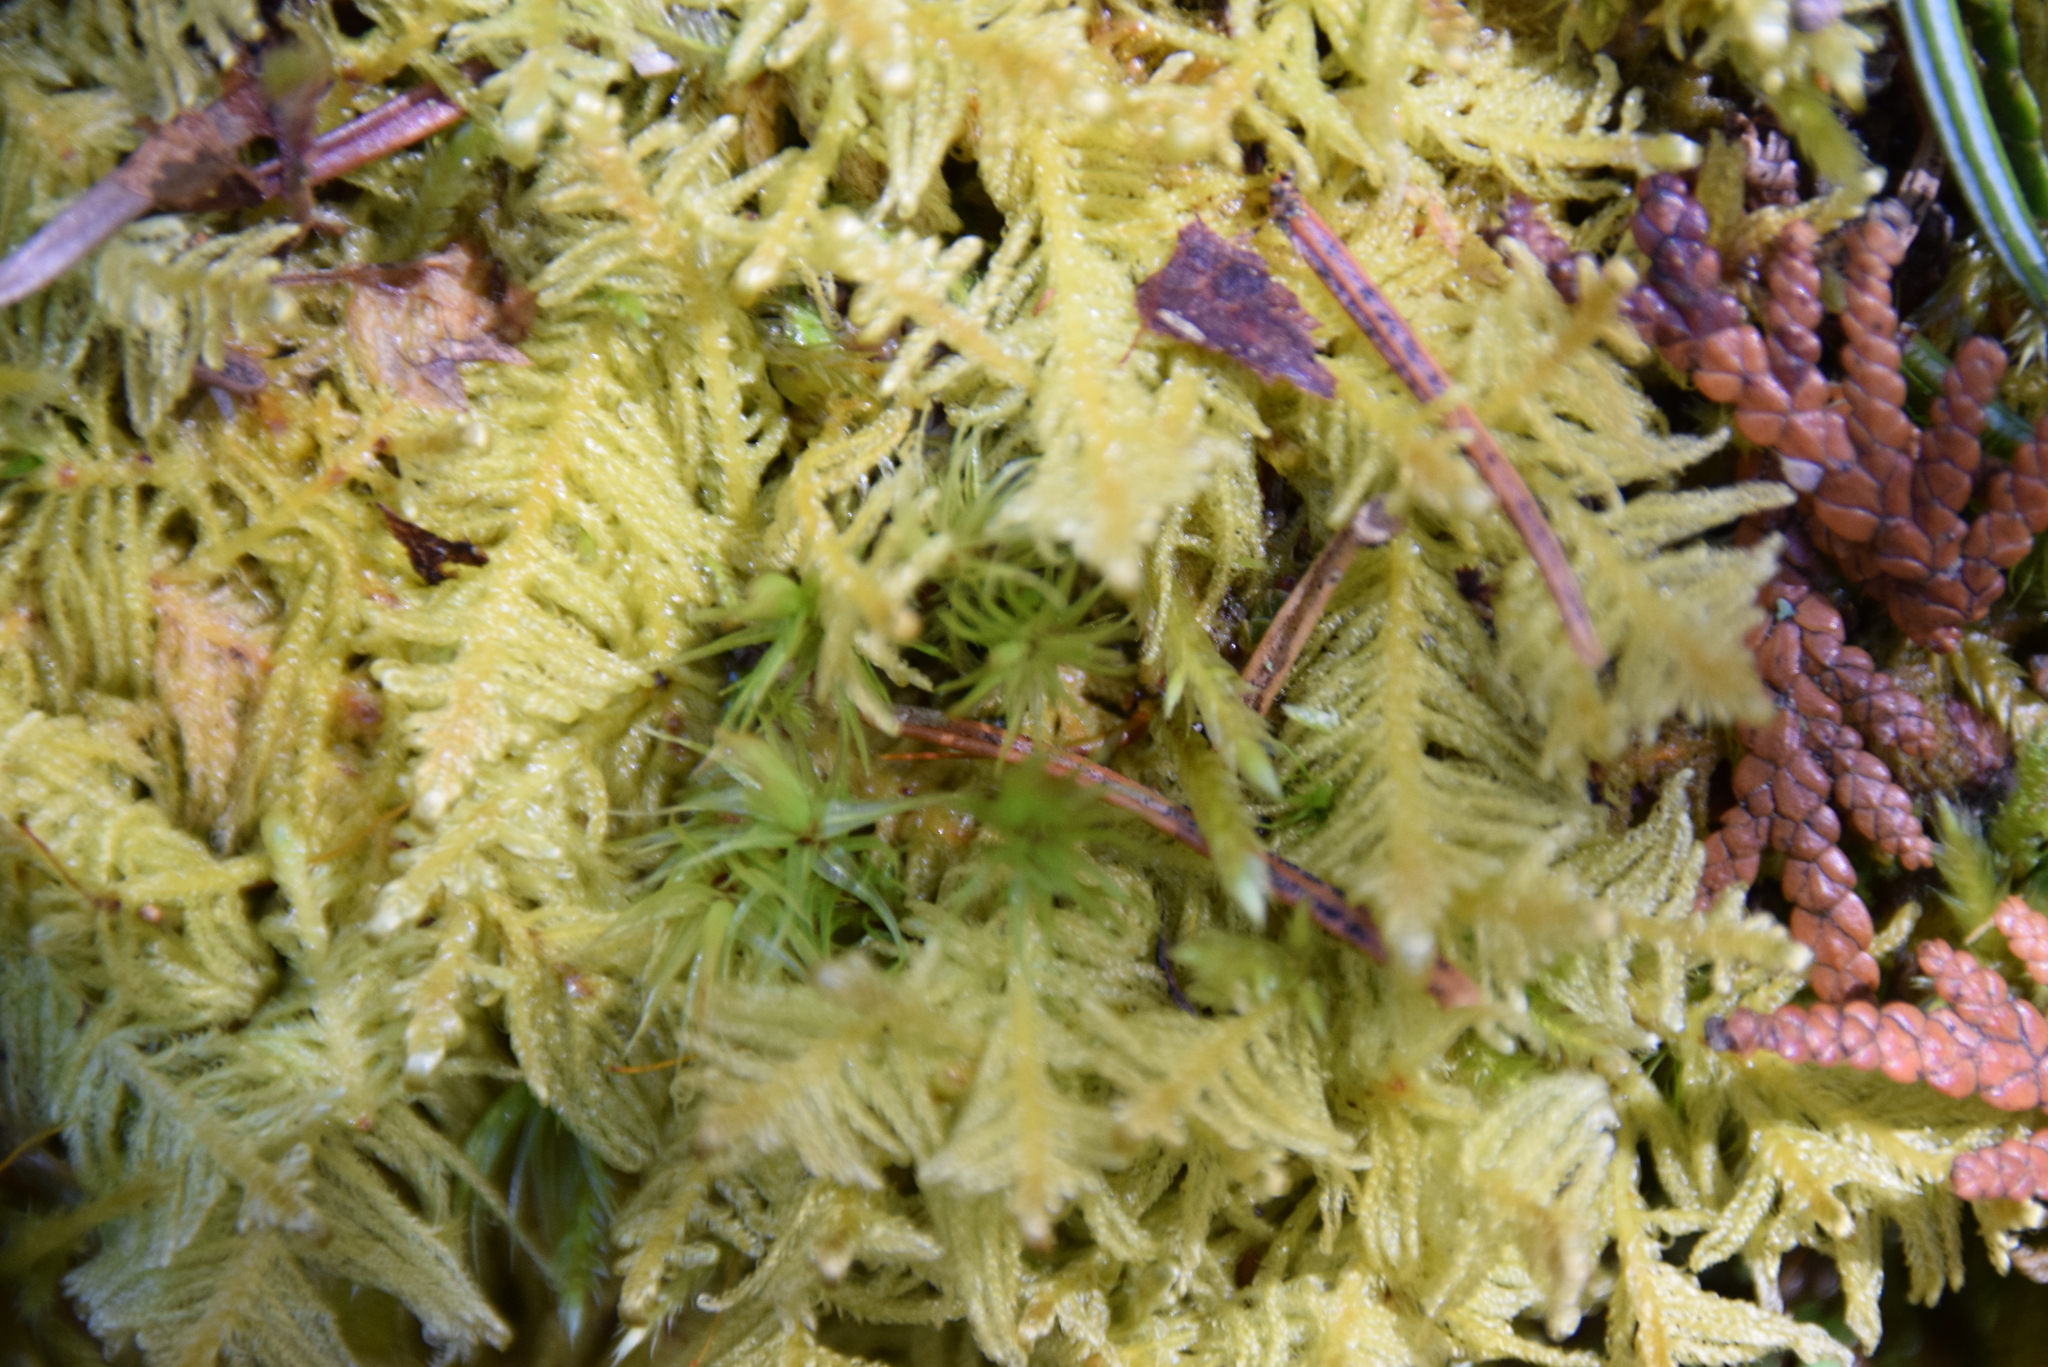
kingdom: Plantae
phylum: Bryophyta
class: Bryopsida
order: Hypnales
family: Pylaisiaceae
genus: Ptilium
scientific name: Ptilium crista-castrensis
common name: Knight's plume moss
